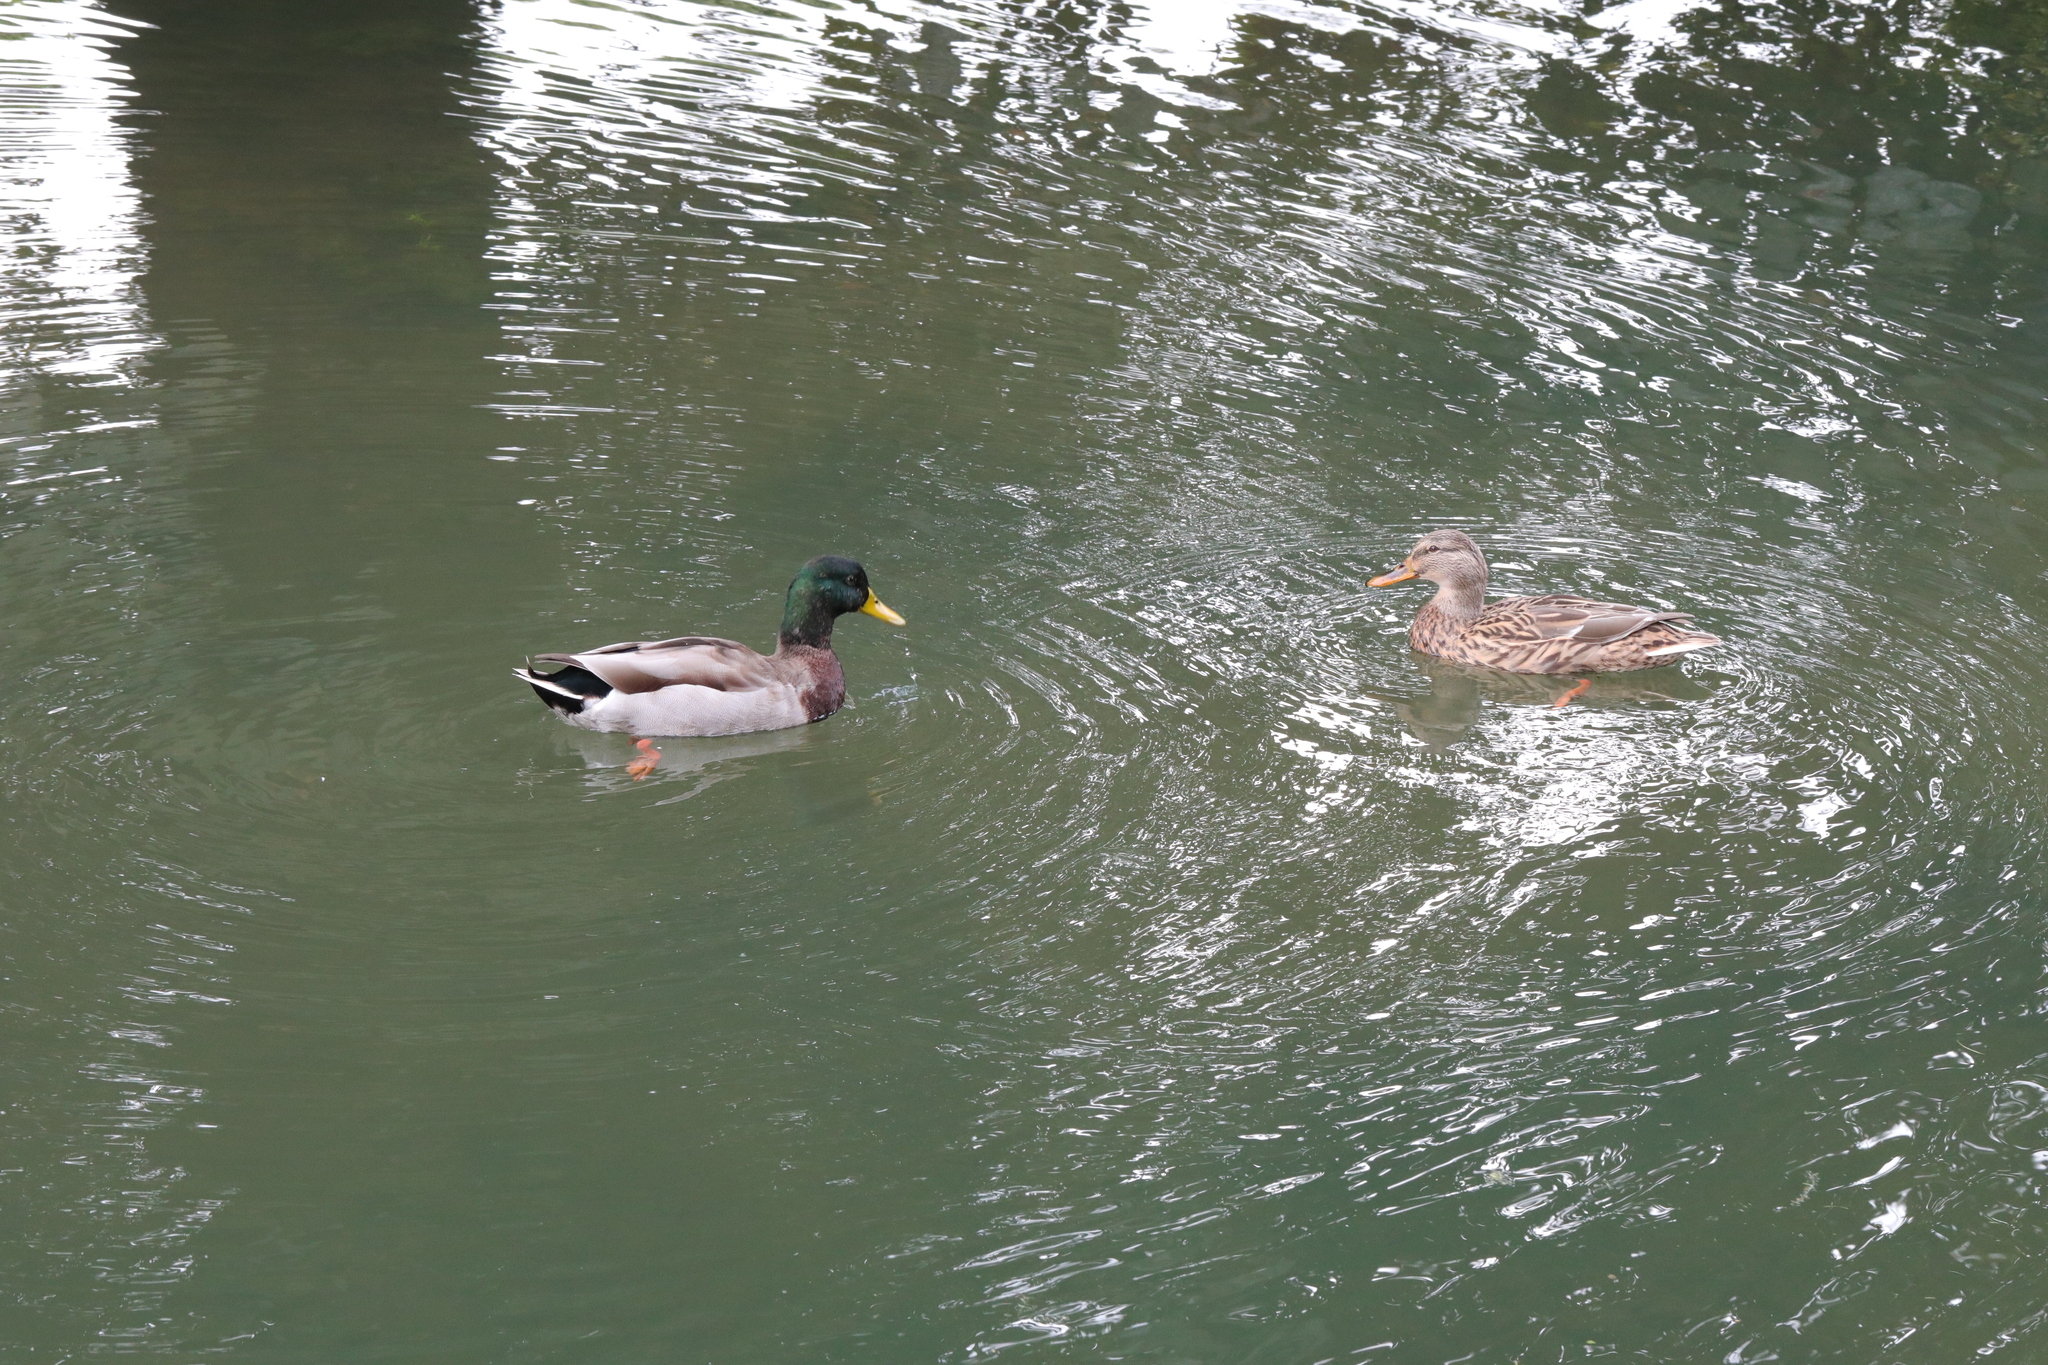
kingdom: Animalia
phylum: Chordata
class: Aves
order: Anseriformes
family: Anatidae
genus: Anas
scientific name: Anas platyrhynchos
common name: Mallard
